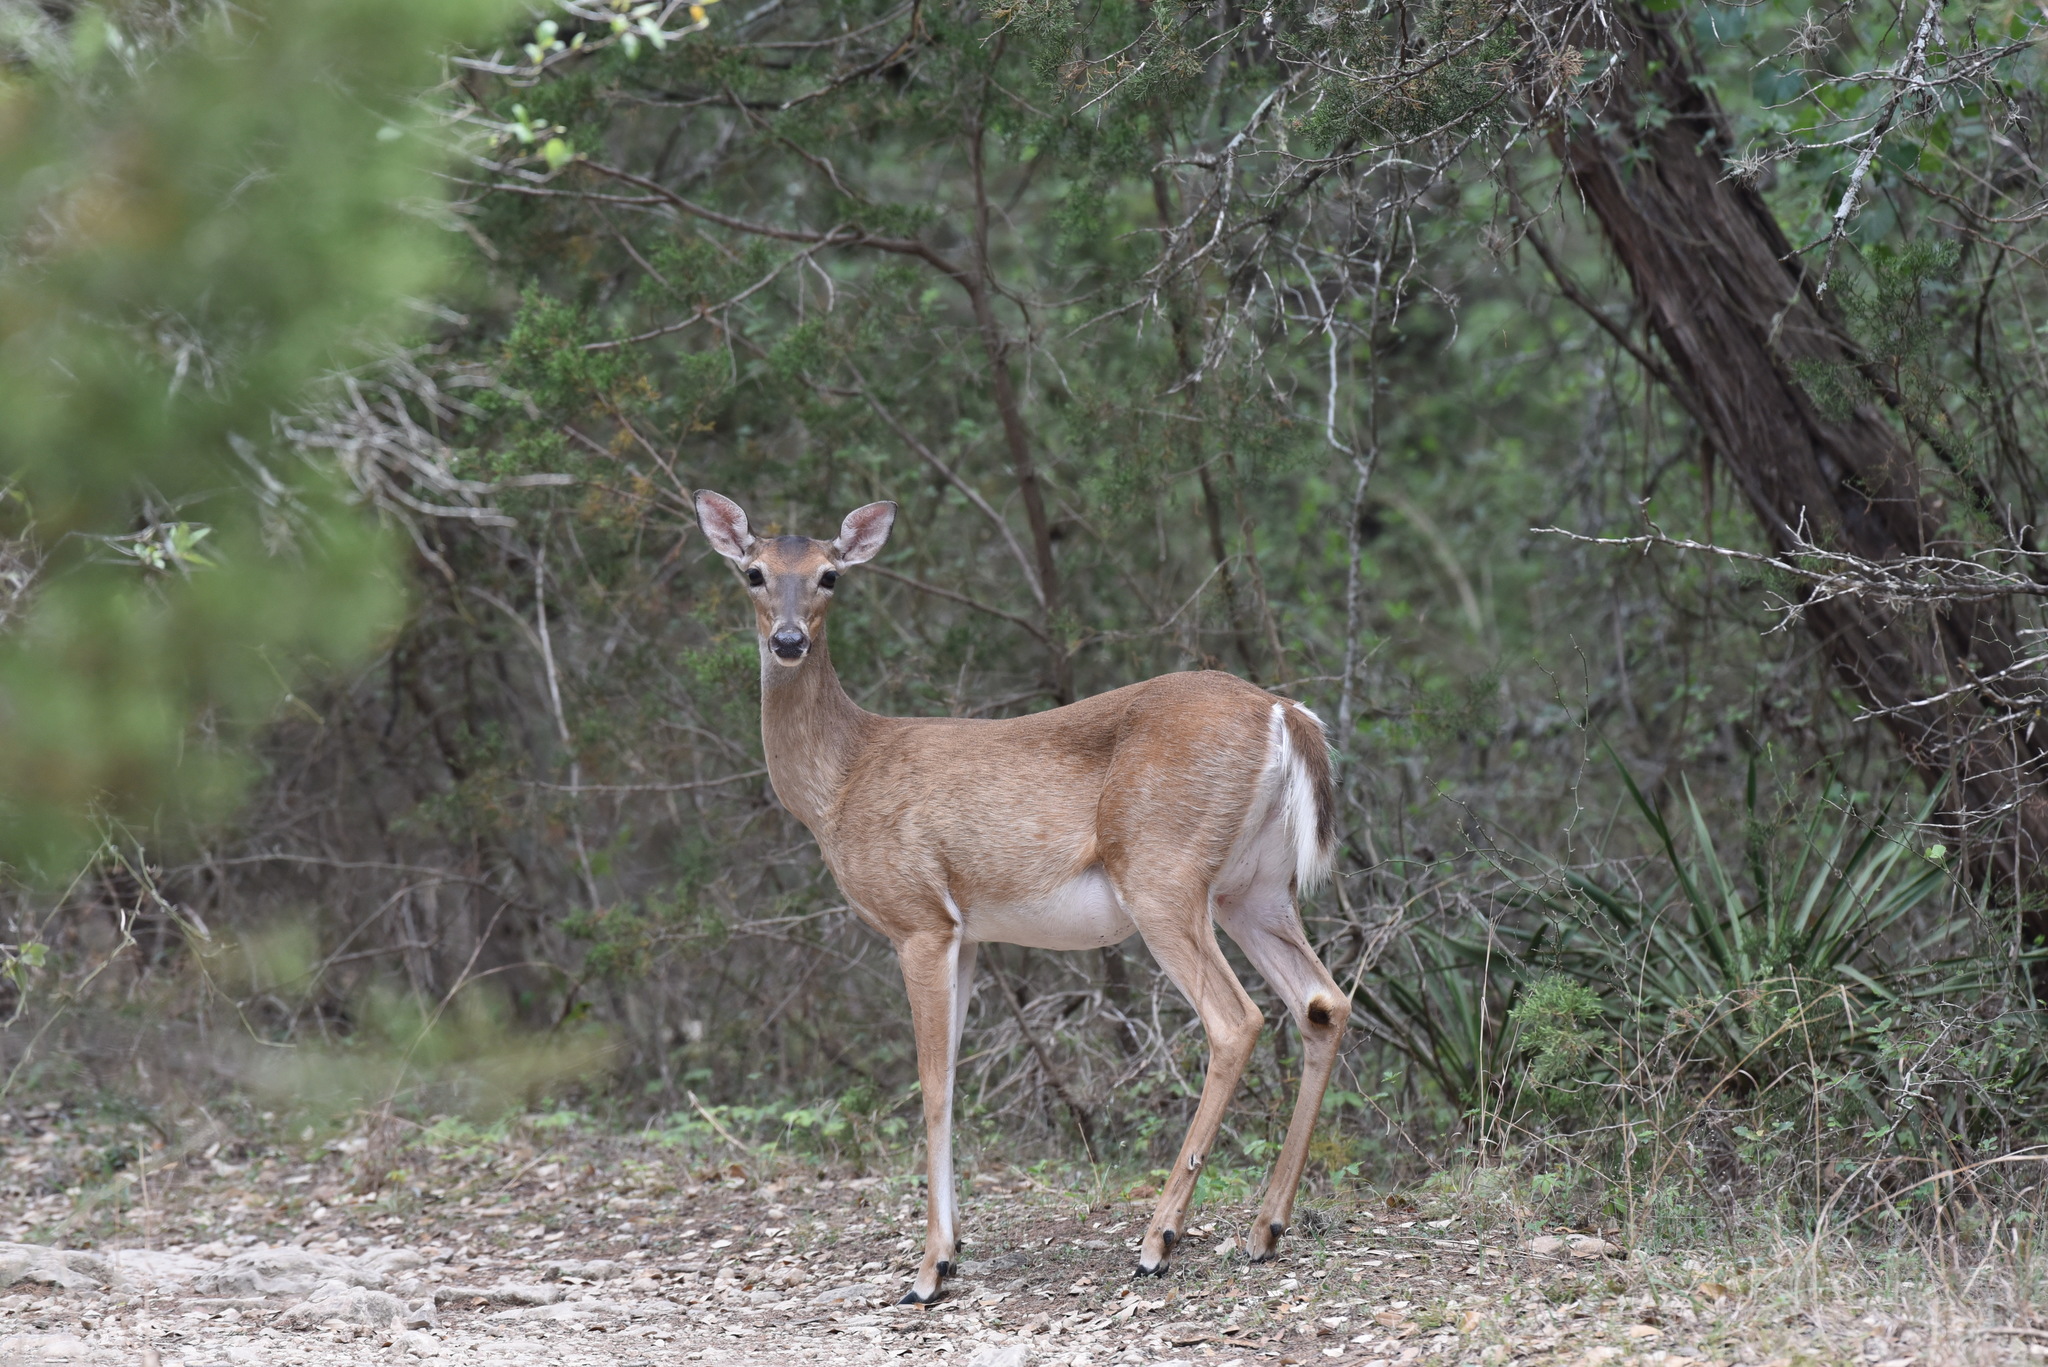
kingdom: Animalia
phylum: Chordata
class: Mammalia
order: Artiodactyla
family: Cervidae
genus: Odocoileus
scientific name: Odocoileus virginianus
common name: White-tailed deer
